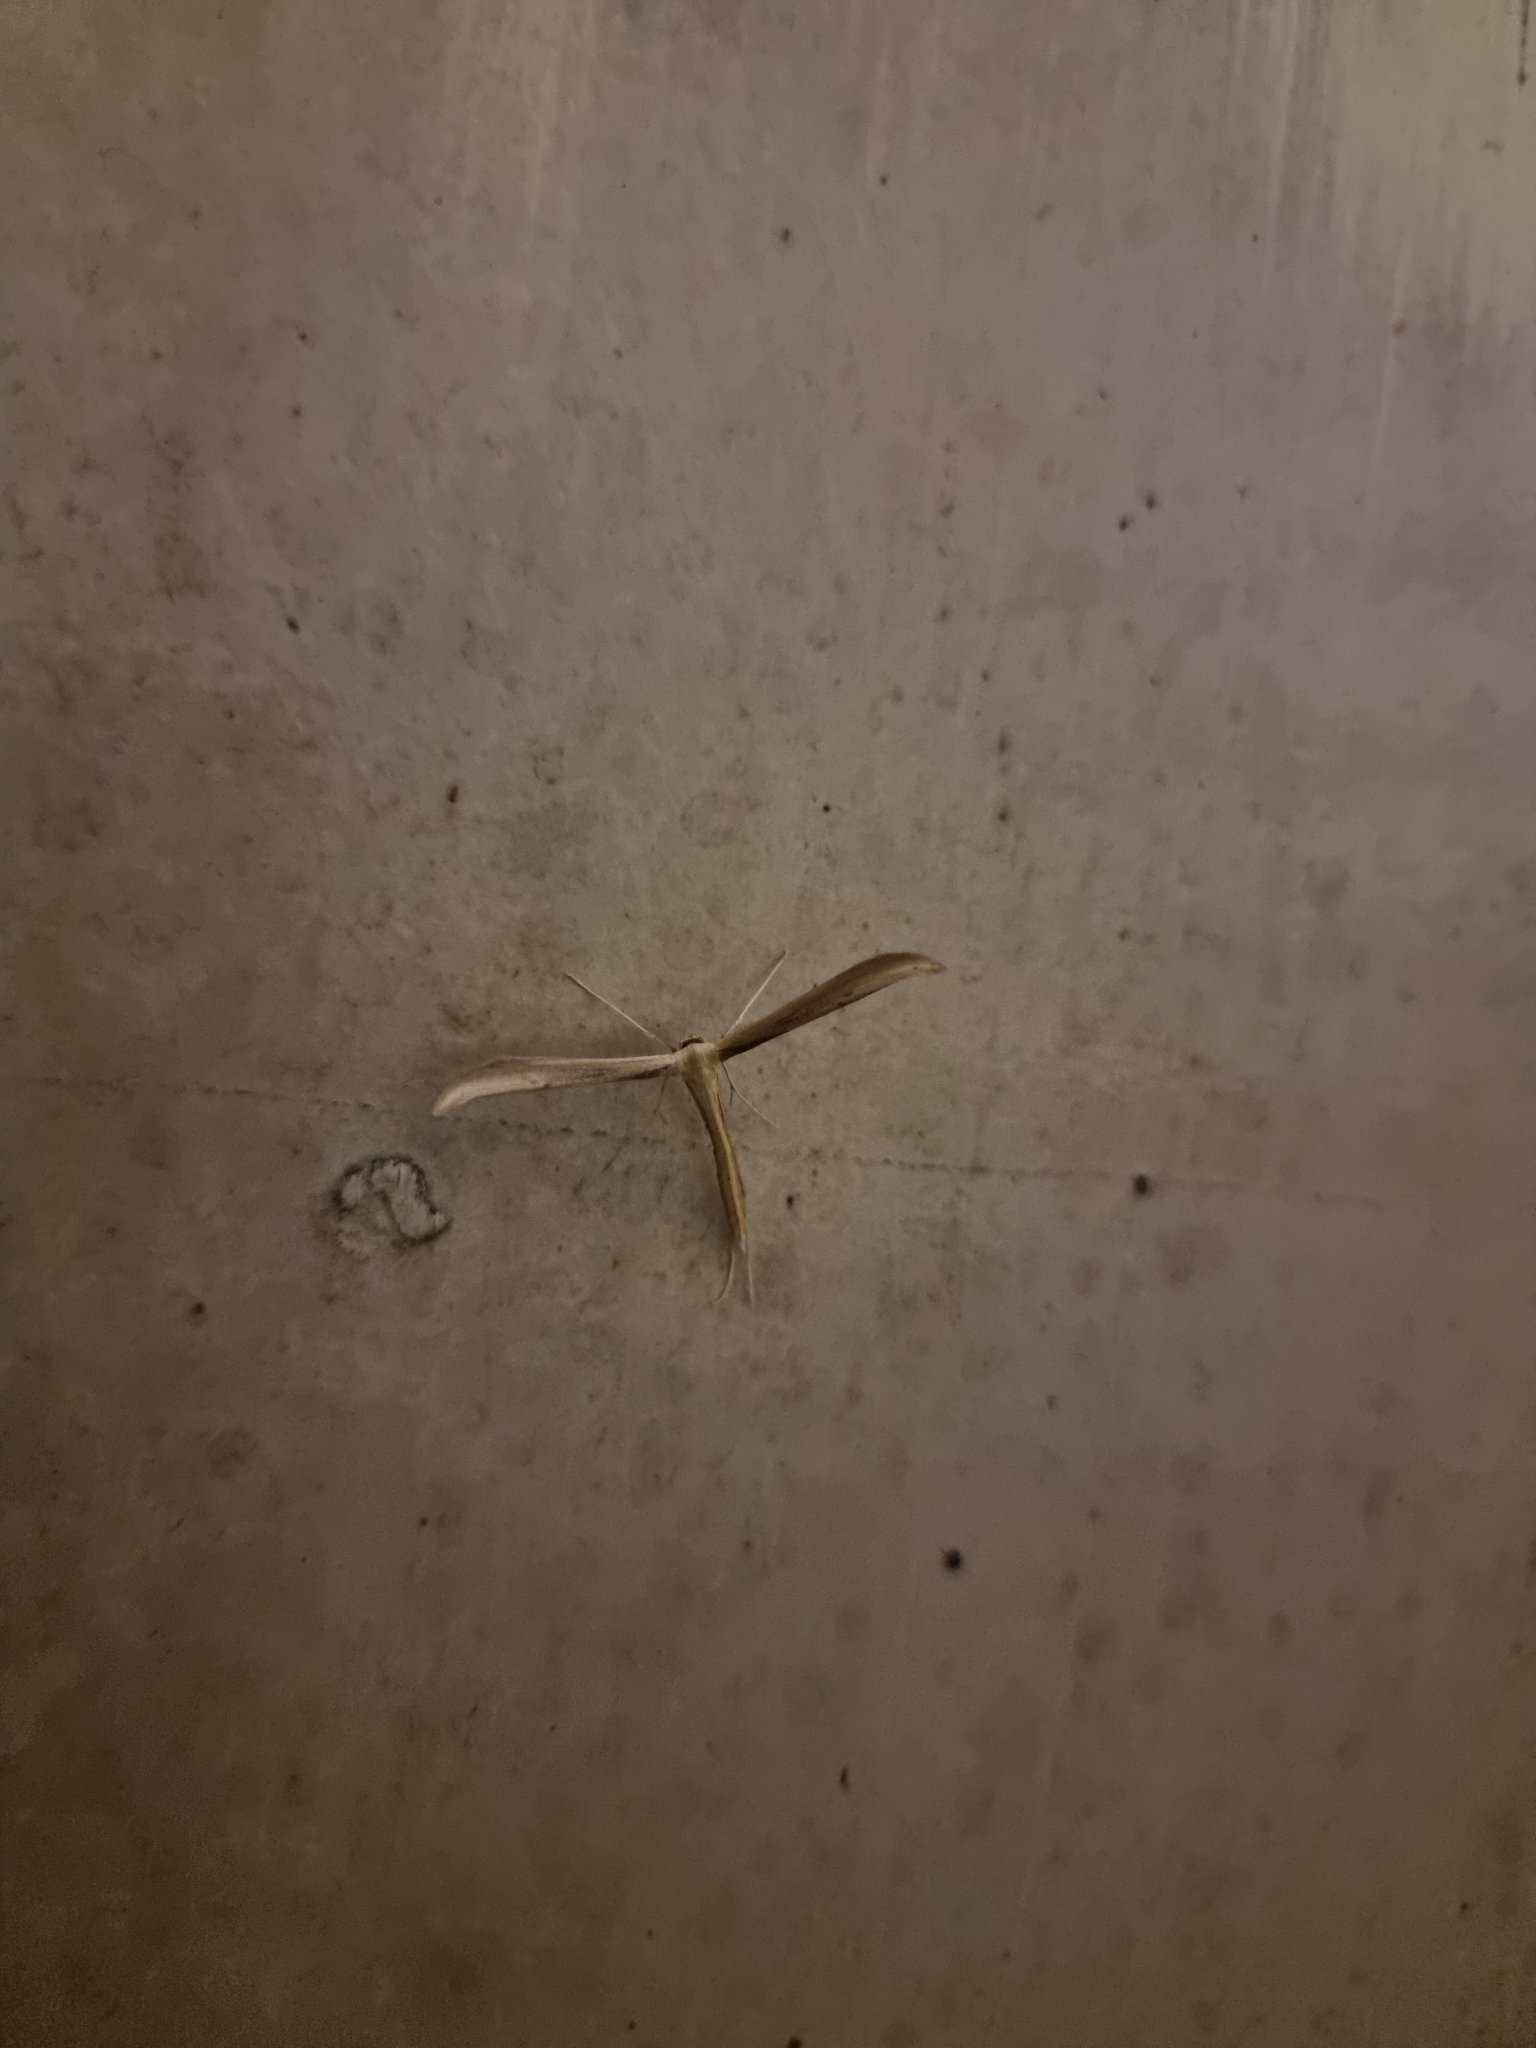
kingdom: Animalia
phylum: Arthropoda
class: Insecta
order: Lepidoptera
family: Pterophoridae
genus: Hellinsia
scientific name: Hellinsia balanotes
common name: Baccharis borer
